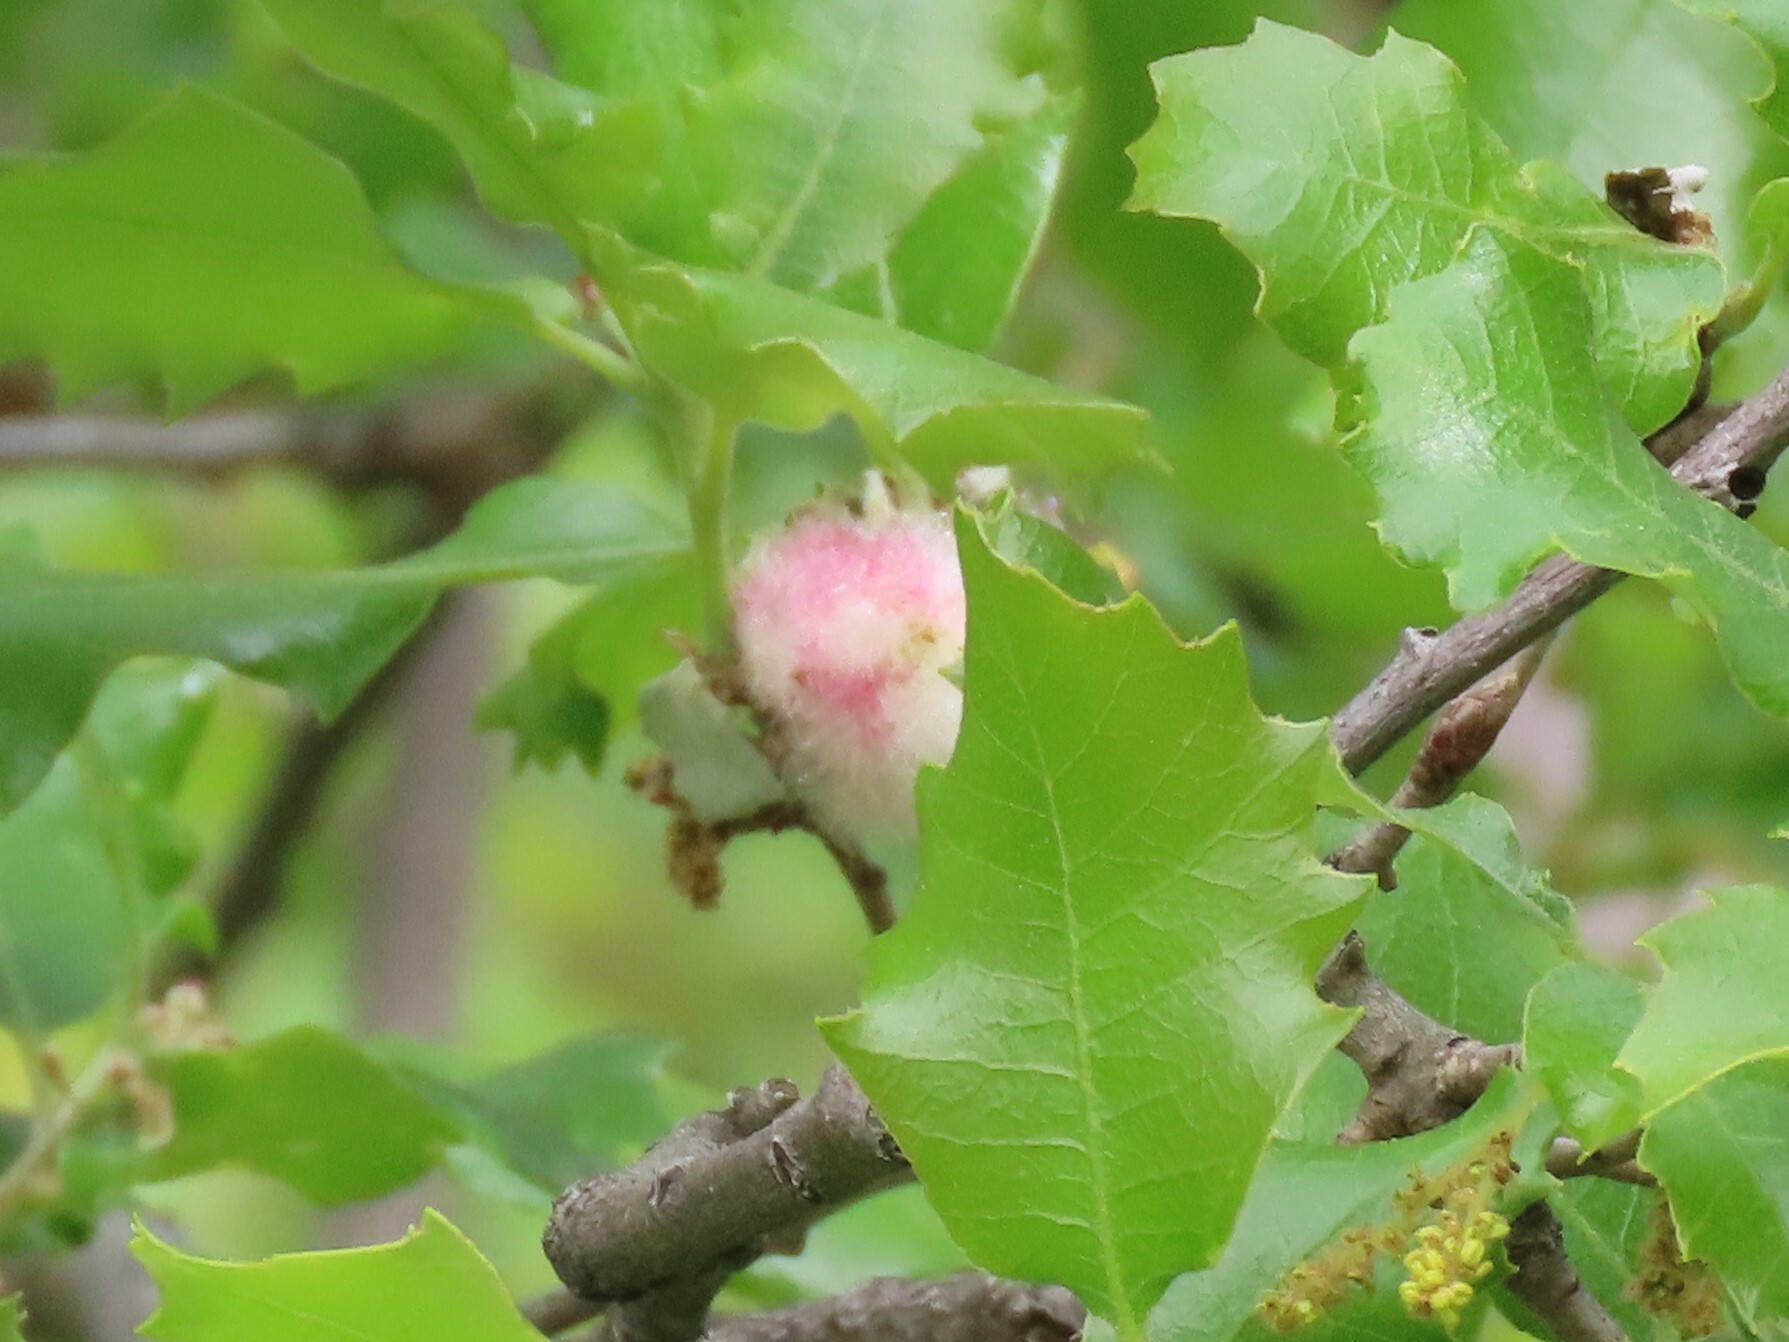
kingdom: Animalia
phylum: Arthropoda
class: Insecta
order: Hymenoptera
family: Cynipidae
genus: Andricus
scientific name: Andricus quercusramuli
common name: Cottonwool gall
